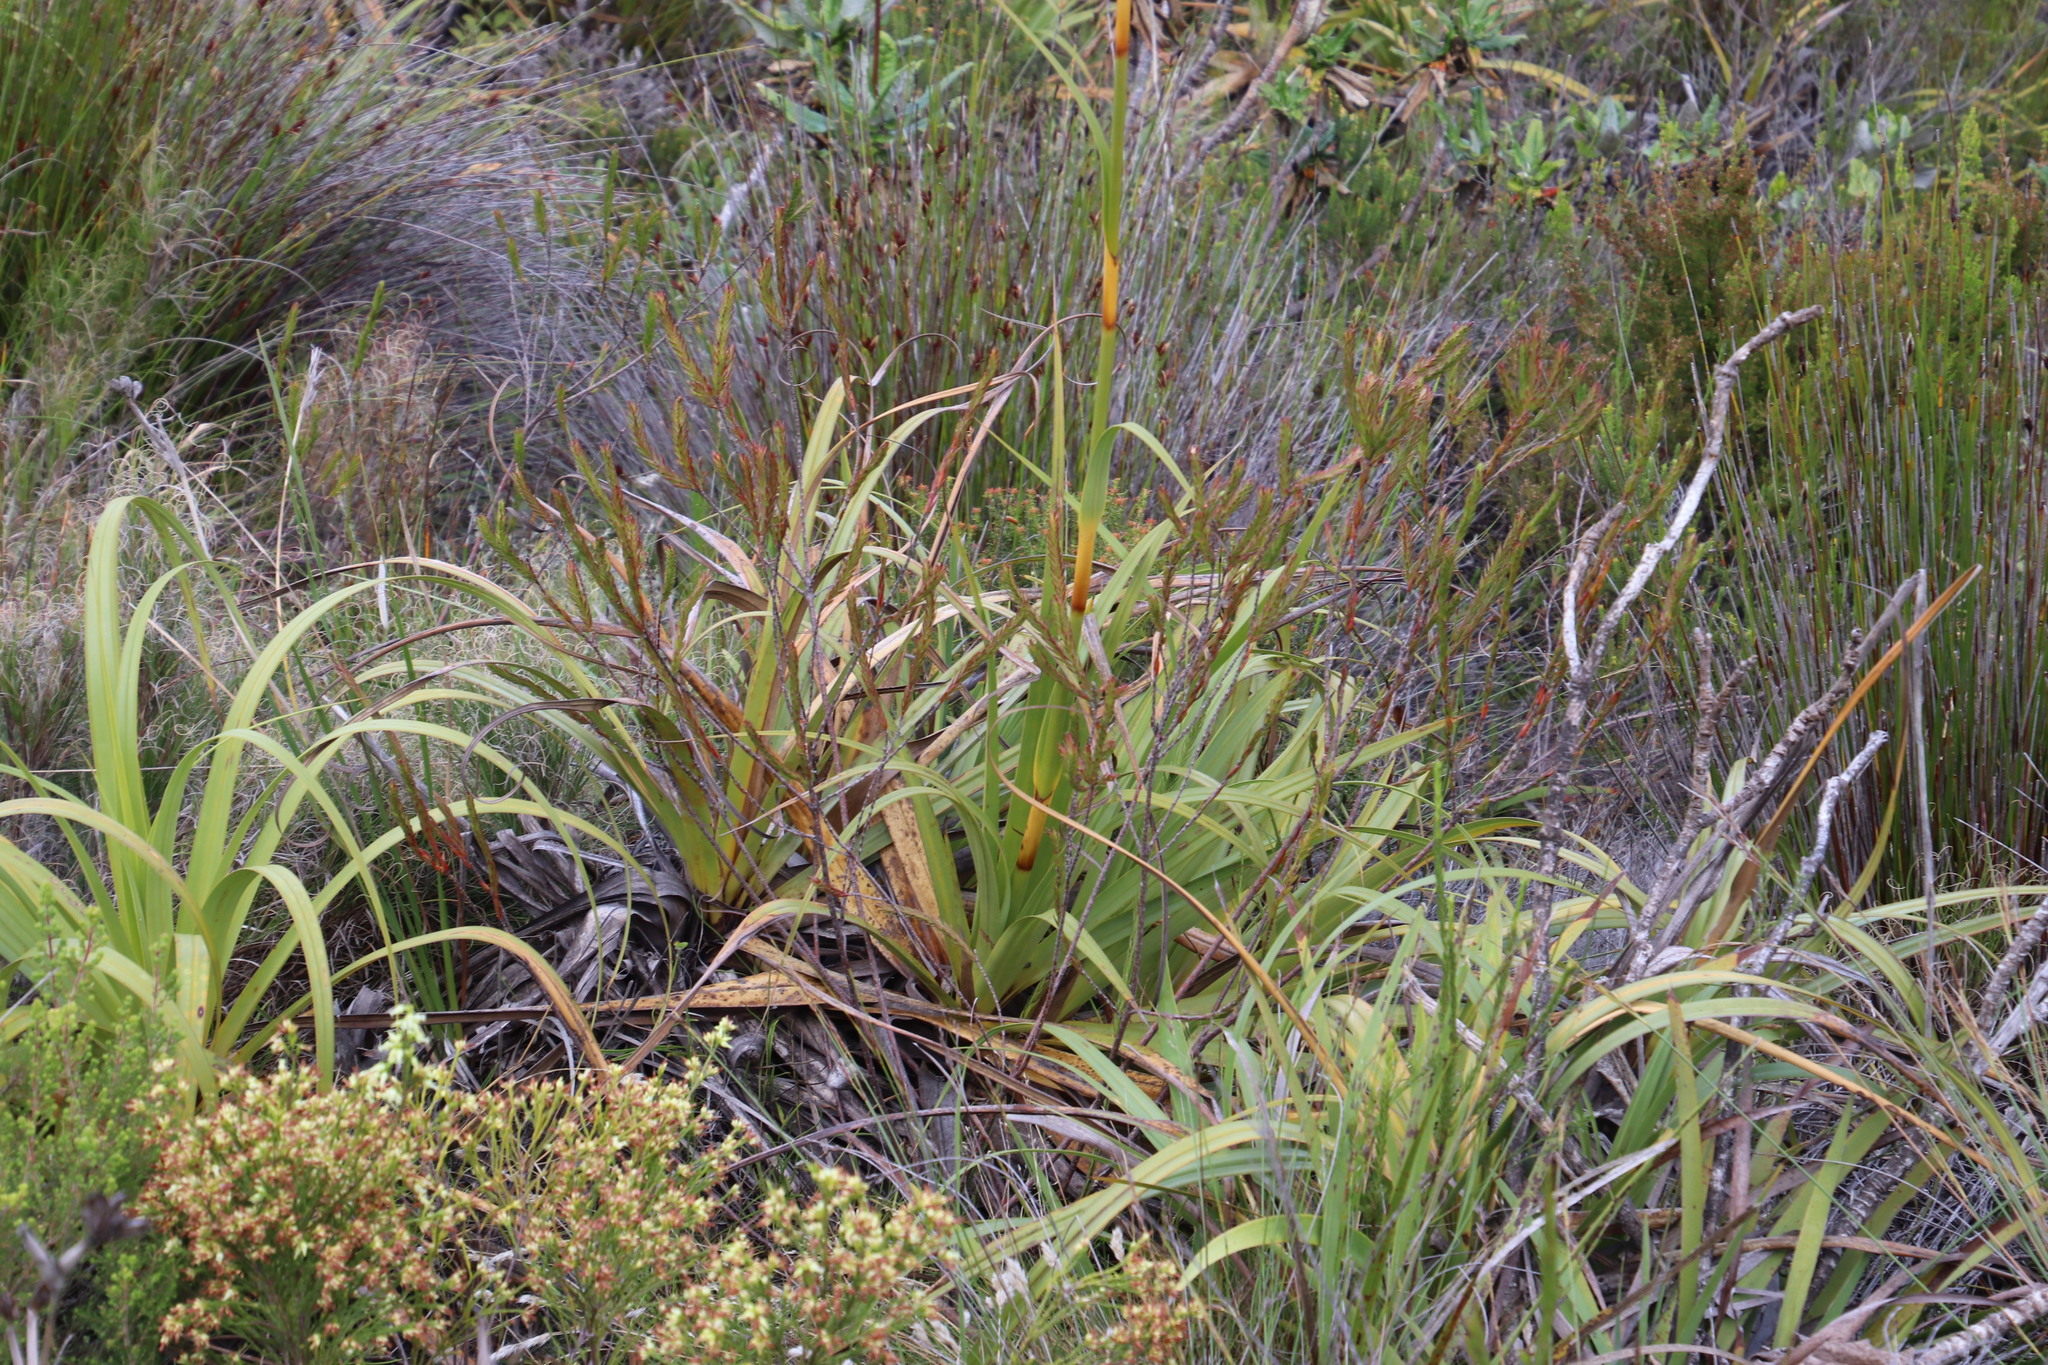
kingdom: Plantae
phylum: Tracheophyta
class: Liliopsida
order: Poales
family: Cyperaceae
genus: Tetraria
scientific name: Tetraria thermalis
